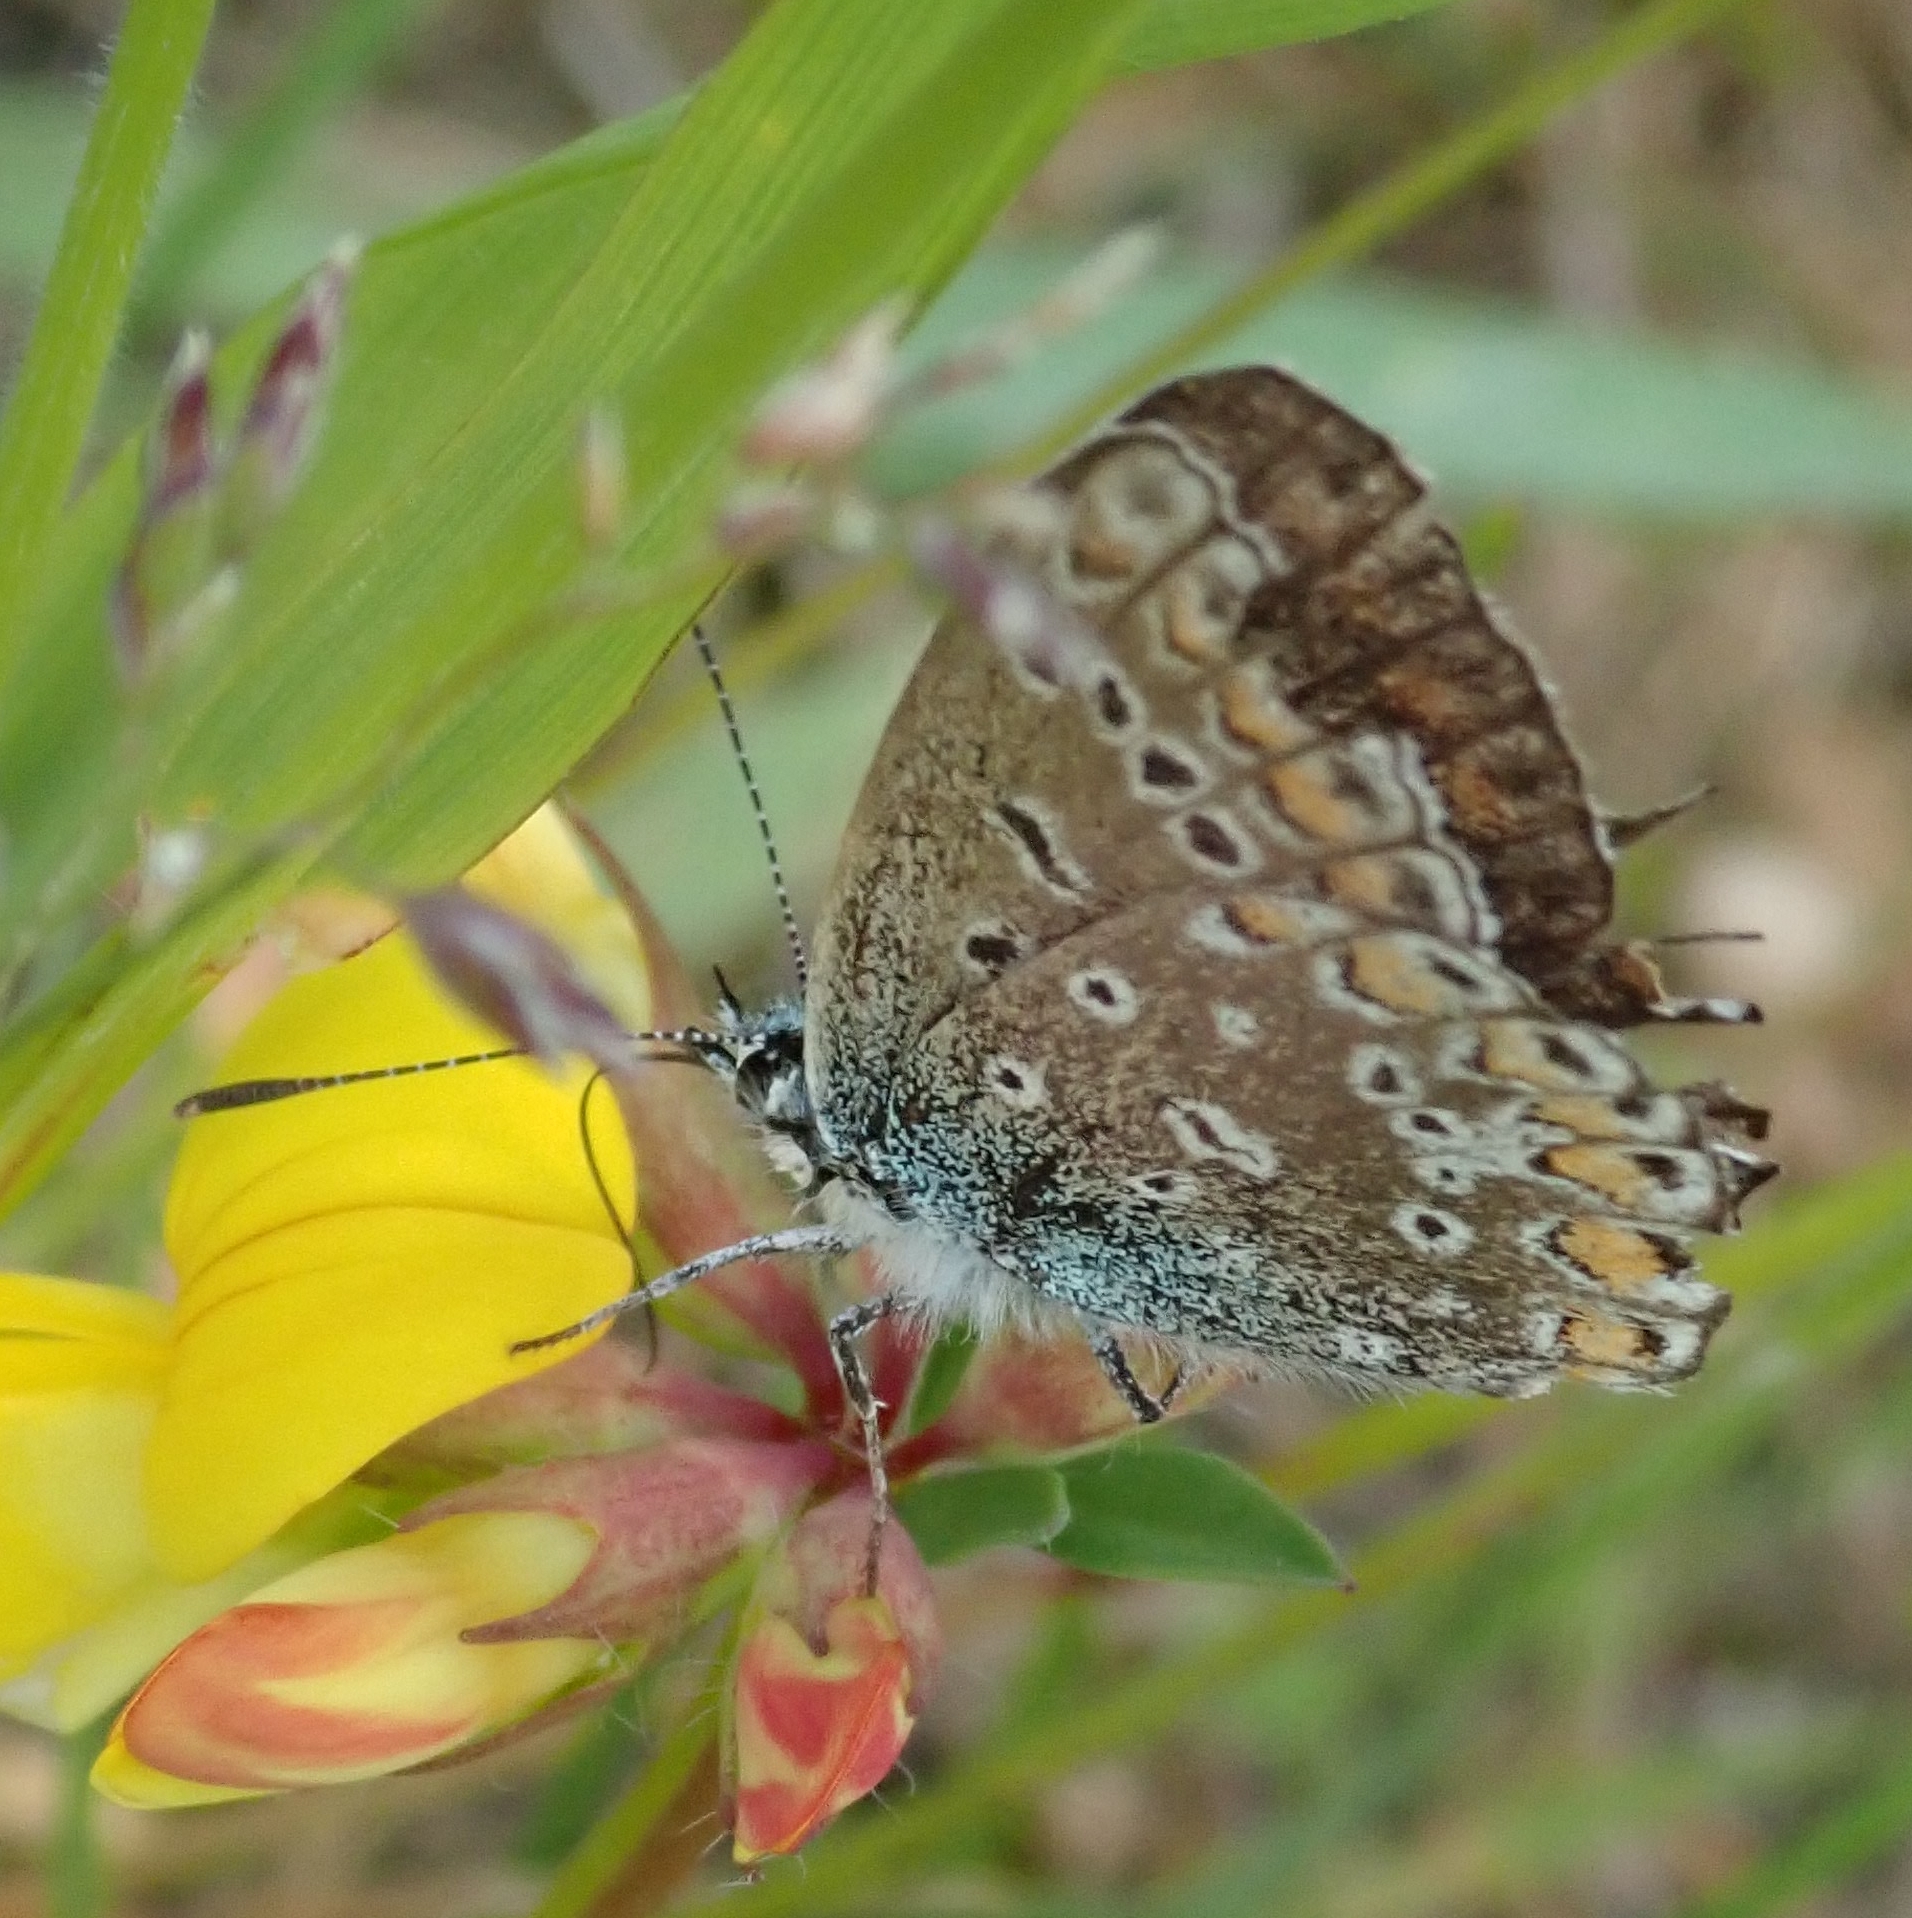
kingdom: Animalia
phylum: Arthropoda
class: Insecta
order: Lepidoptera
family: Lycaenidae
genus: Polyommatus
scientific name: Polyommatus icarus
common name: Common blue
